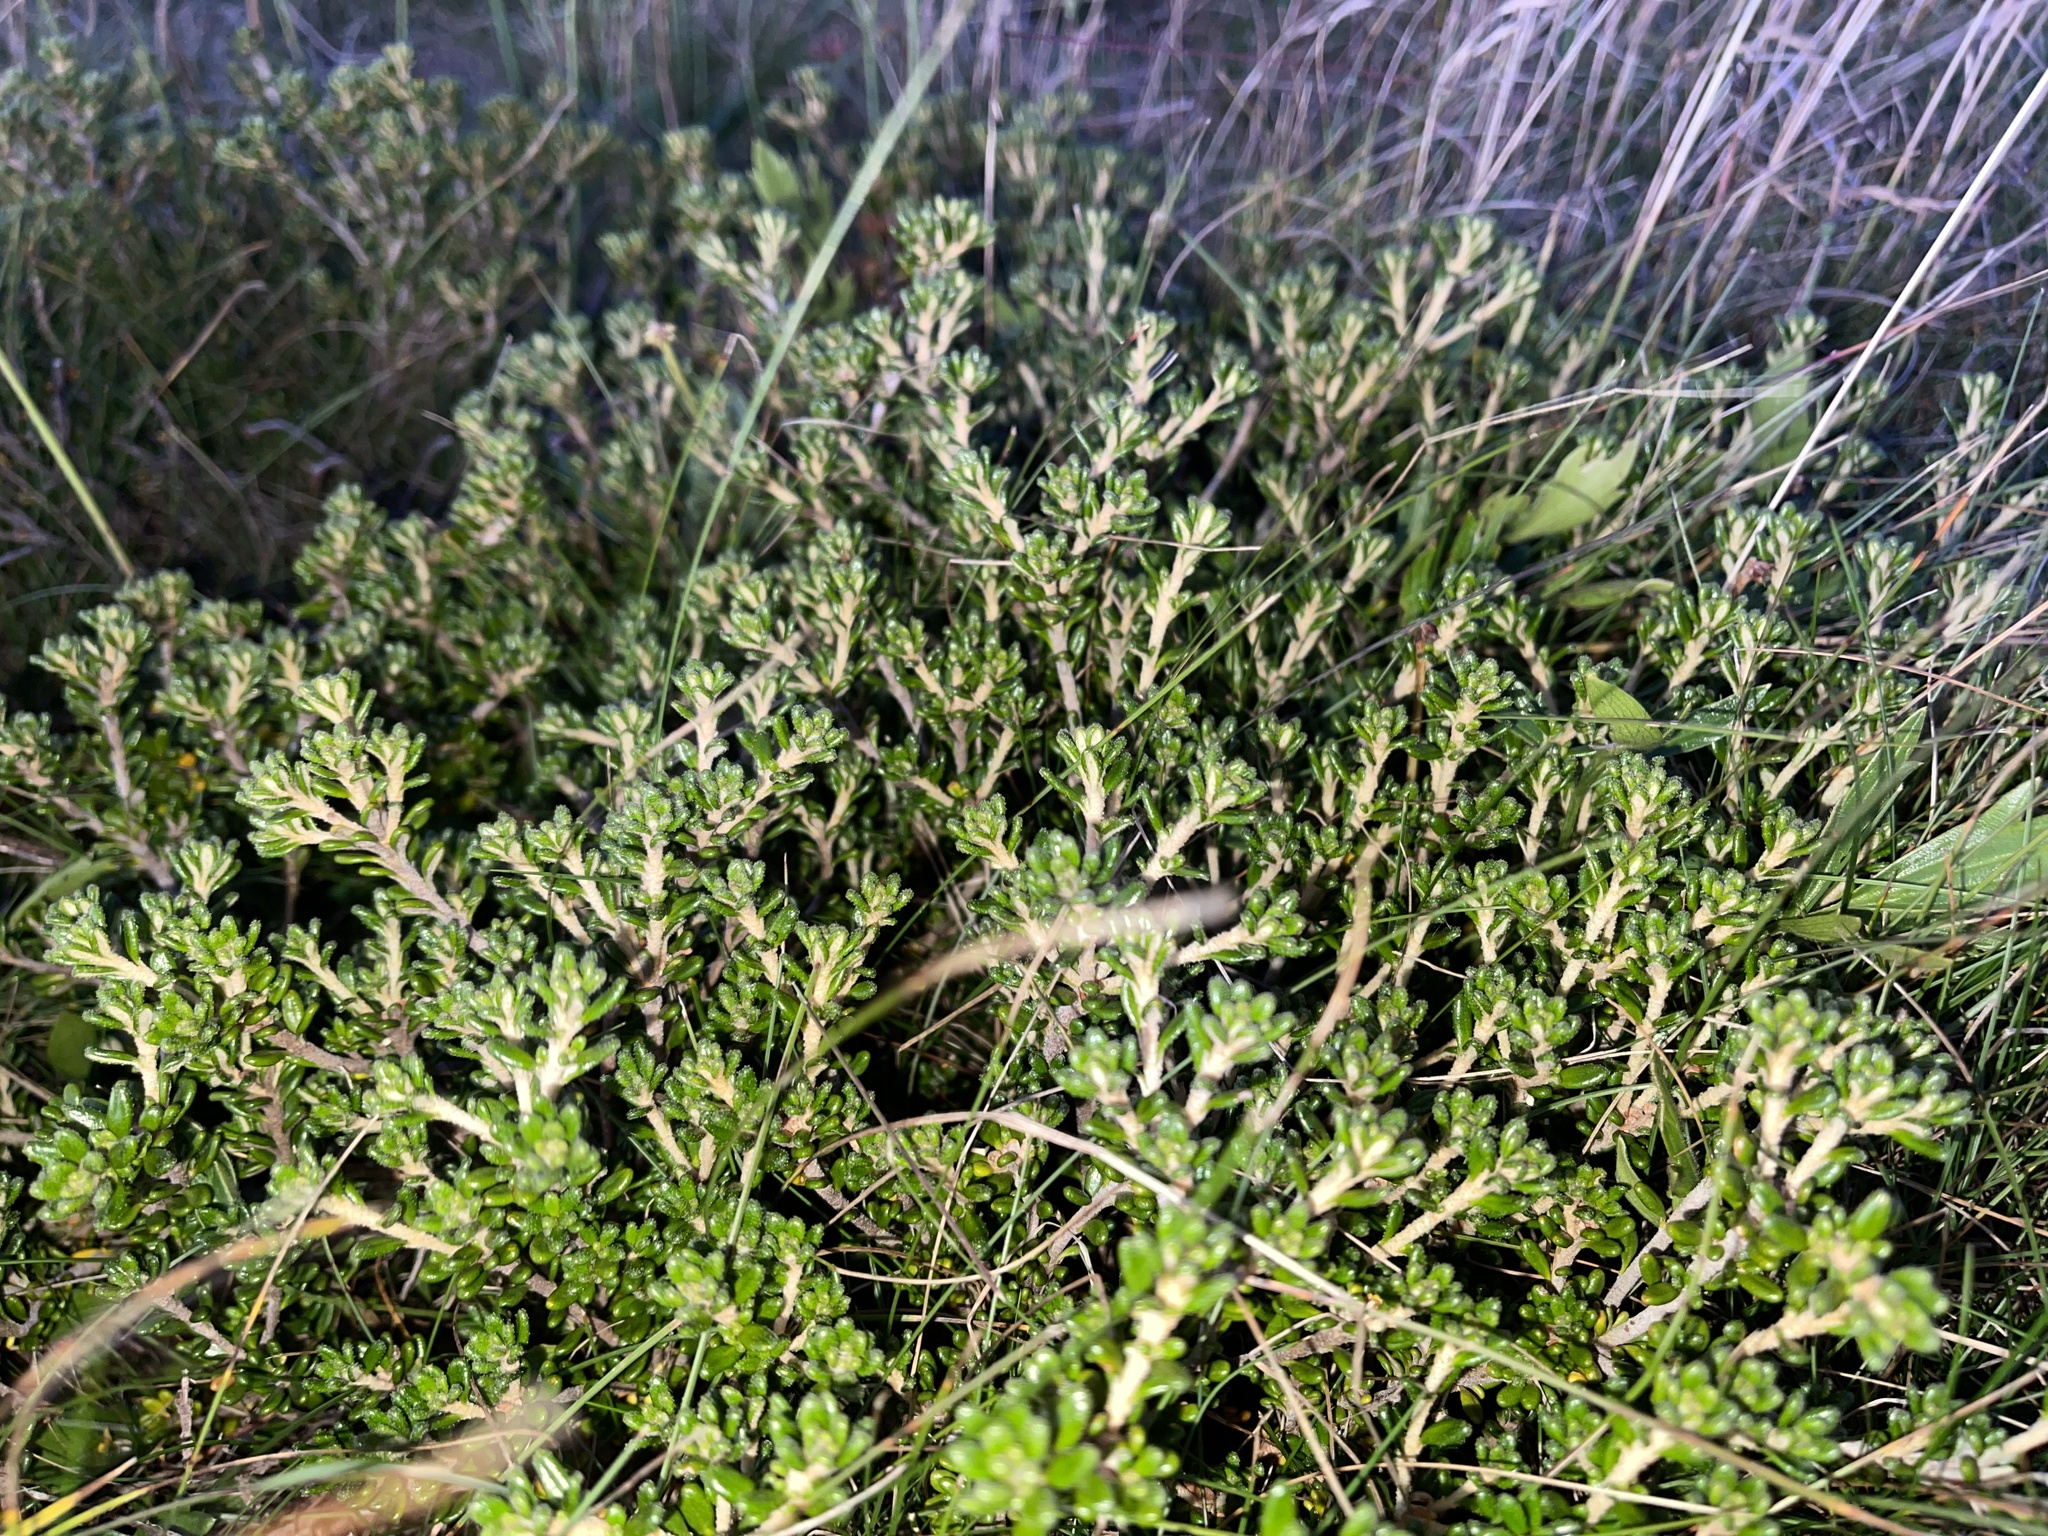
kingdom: Plantae
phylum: Tracheophyta
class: Magnoliopsida
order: Sapindales
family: Rutaceae
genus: Asterolasia
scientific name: Asterolasia trymalioides
